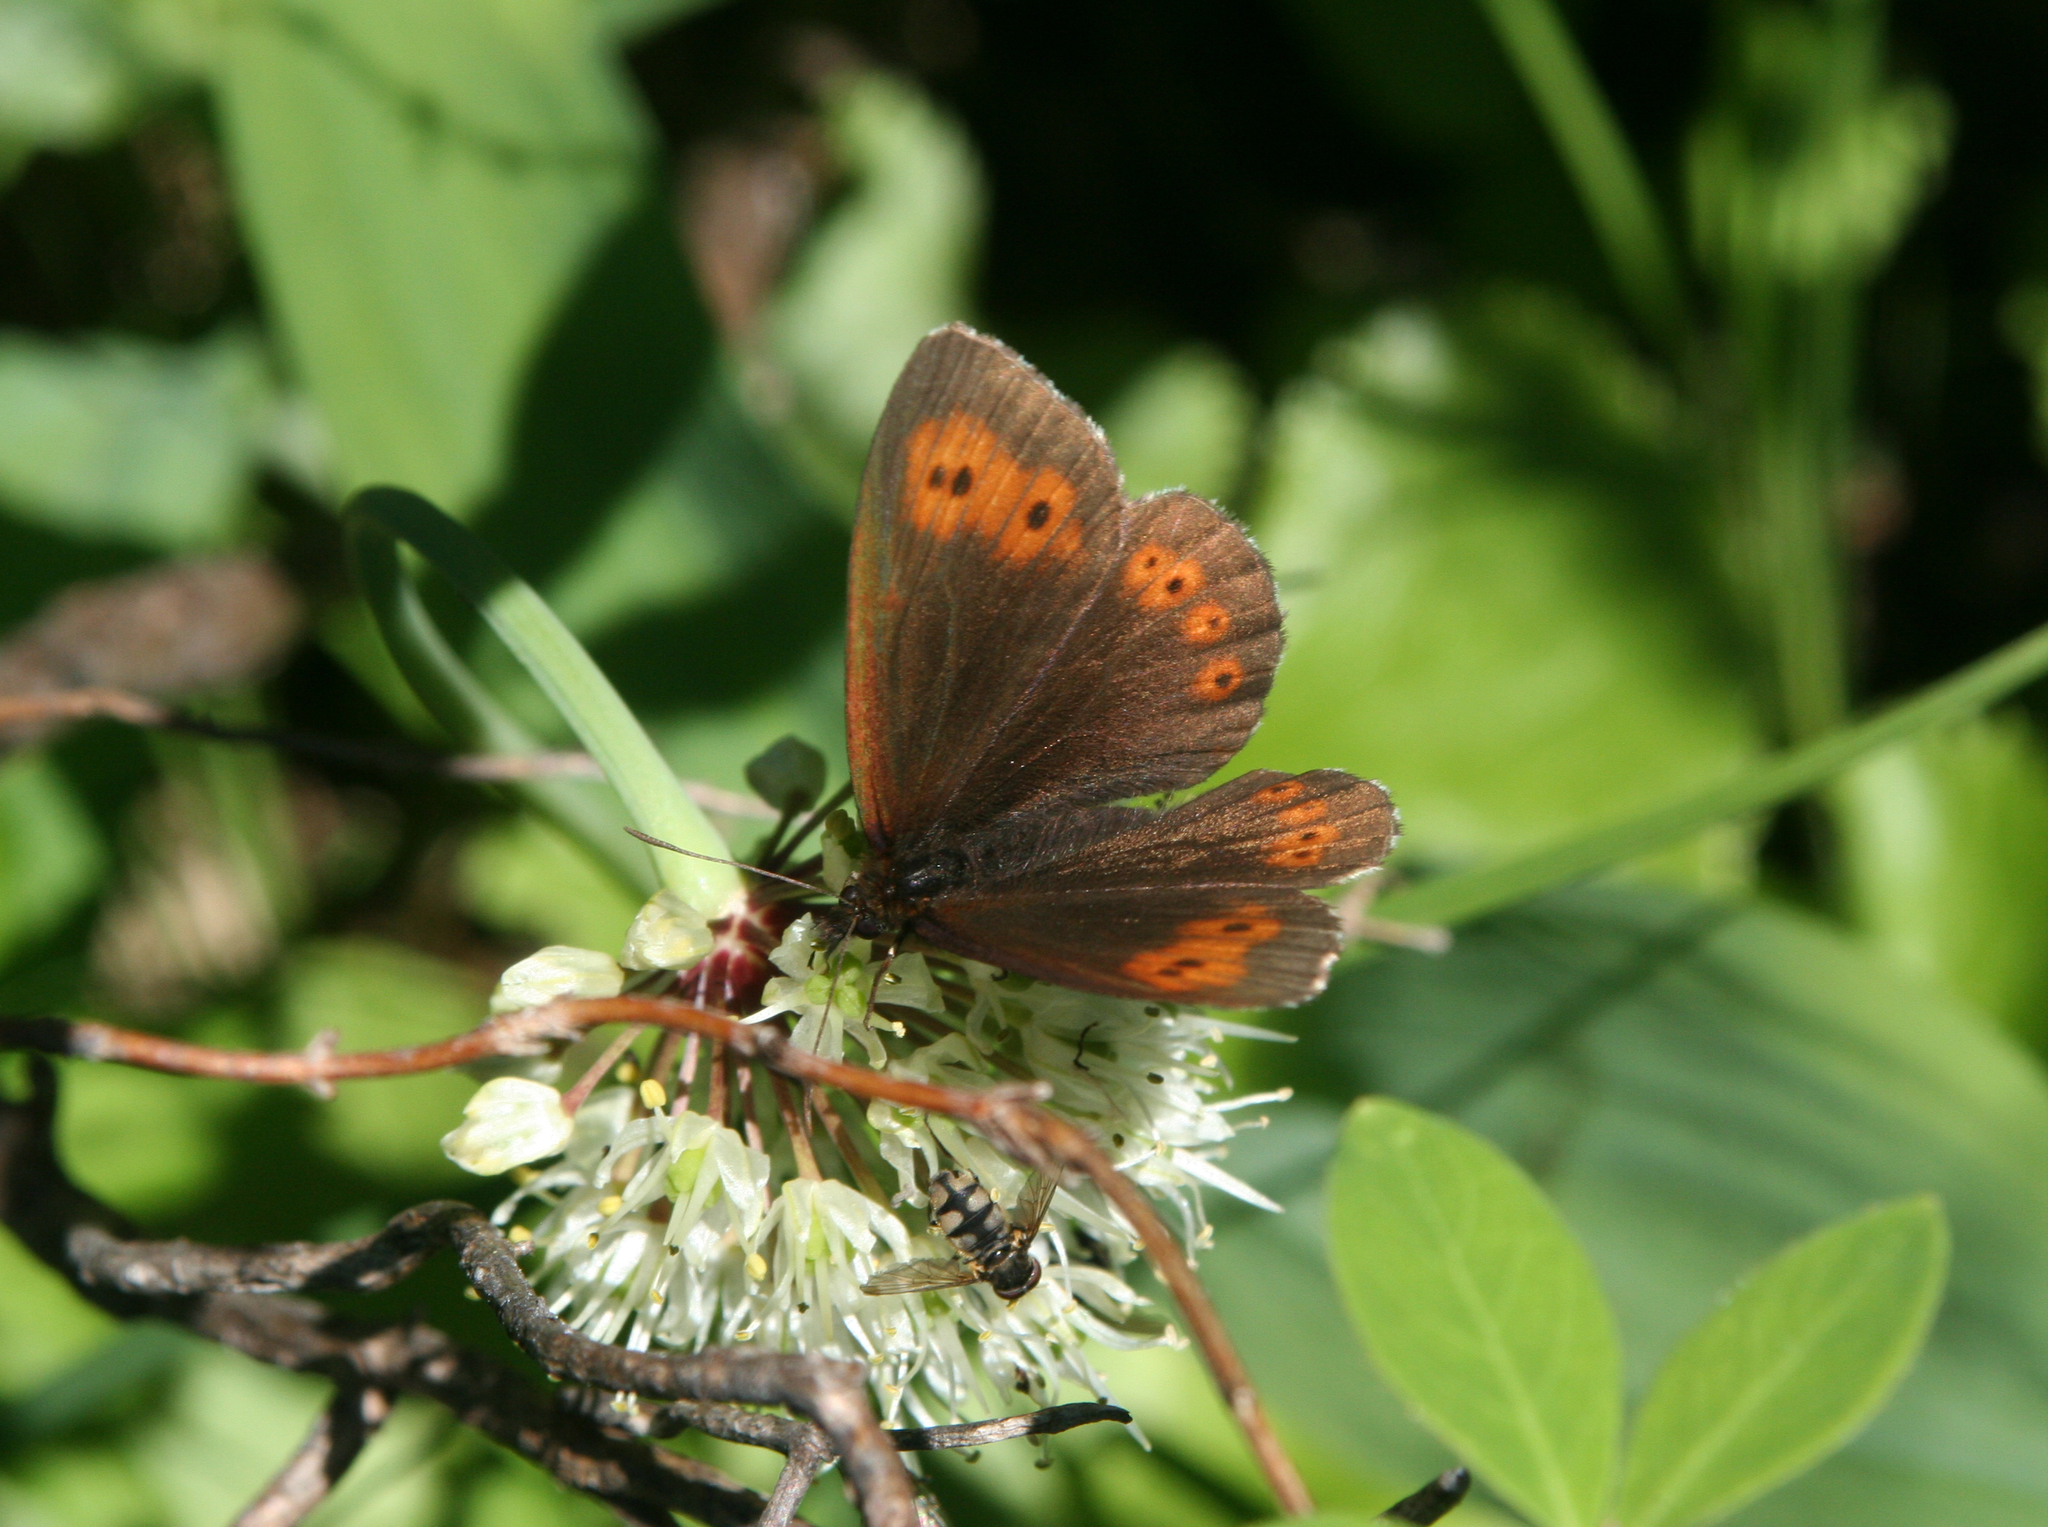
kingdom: Animalia
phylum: Arthropoda
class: Insecta
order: Lepidoptera
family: Nymphalidae
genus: Erebia
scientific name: Erebia jeniseiensis
